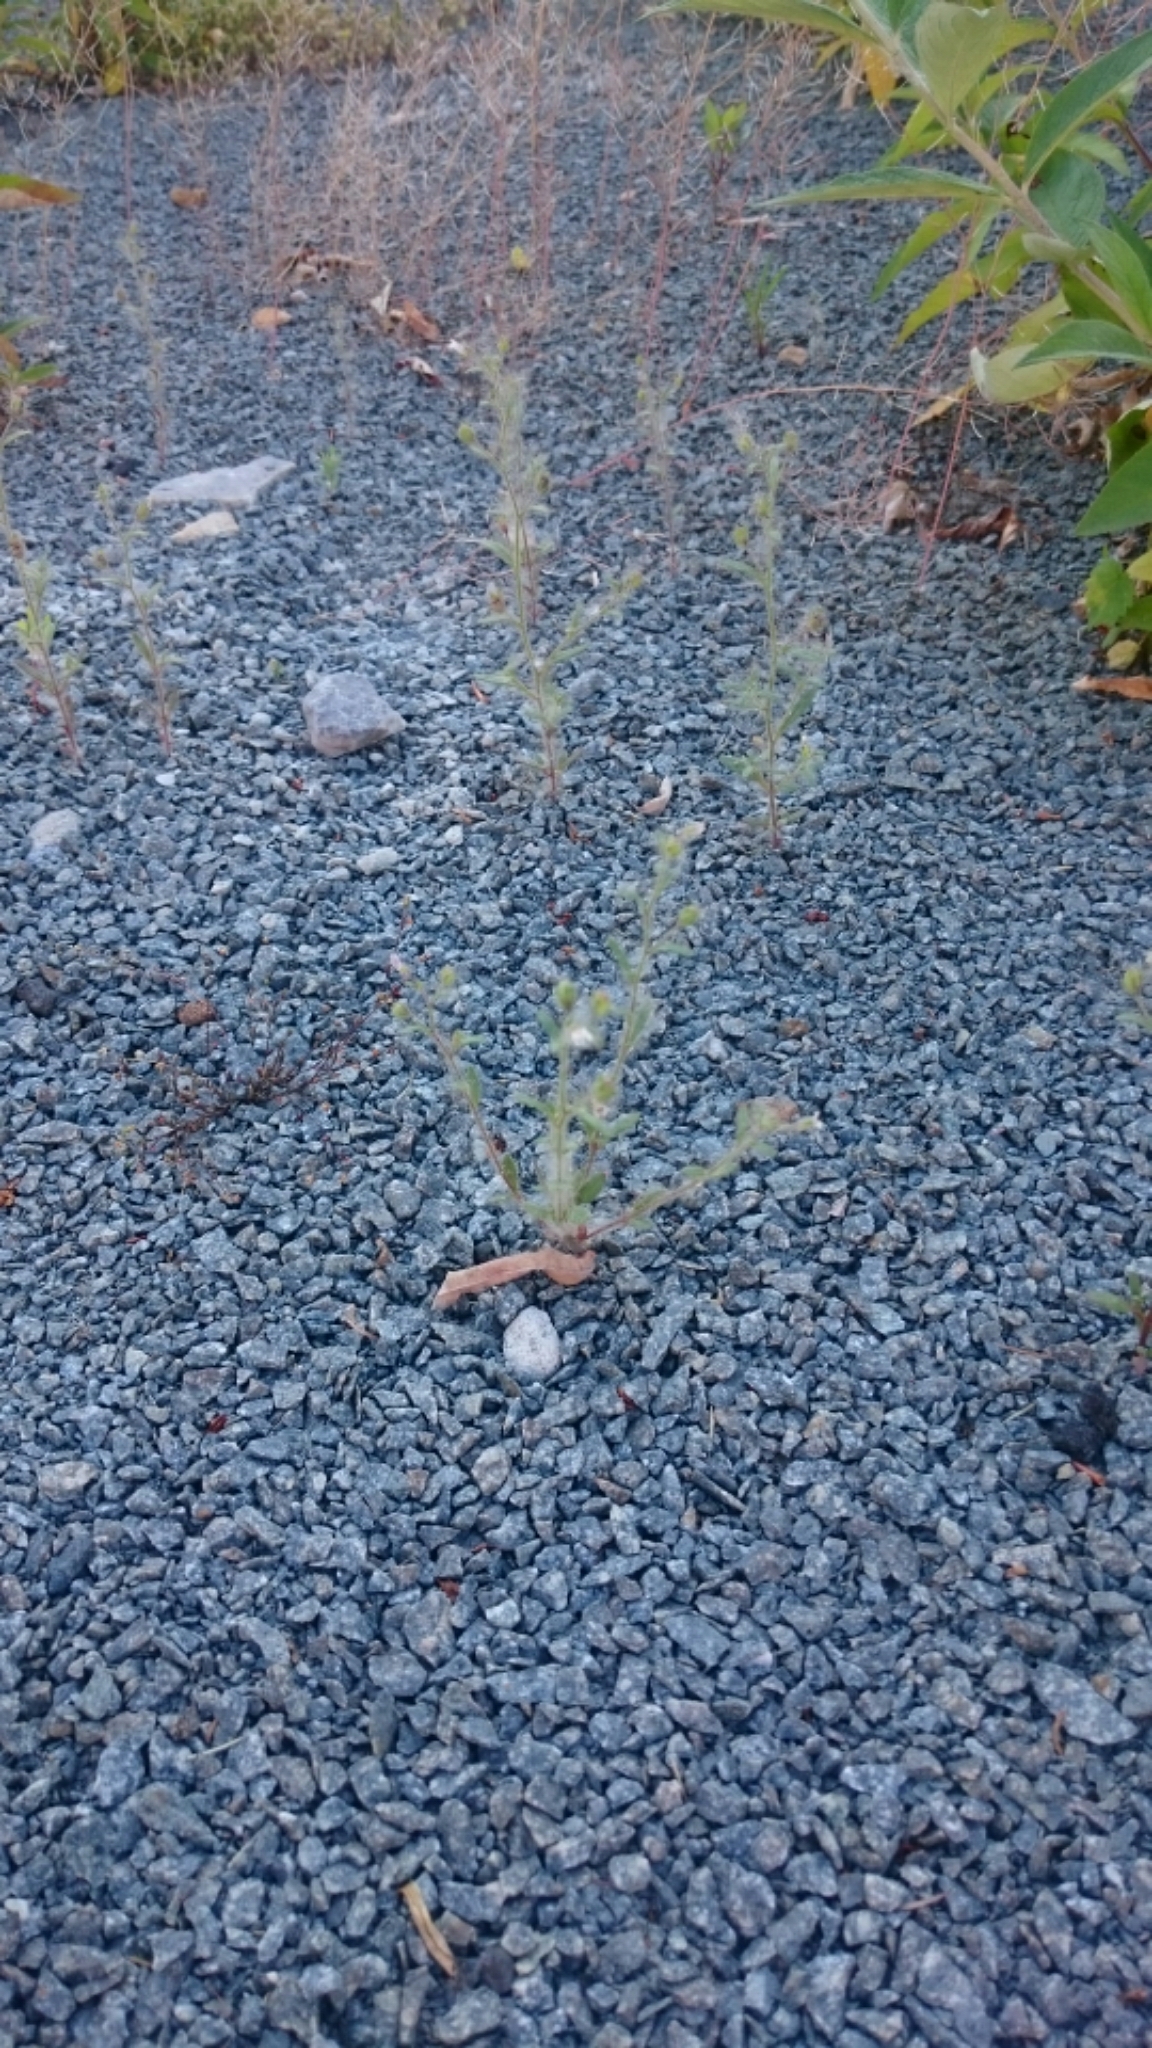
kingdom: Plantae
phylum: Tracheophyta
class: Magnoliopsida
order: Lamiales
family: Plantaginaceae
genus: Chaenorhinum
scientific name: Chaenorhinum minus
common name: Dwarf snapdragon
